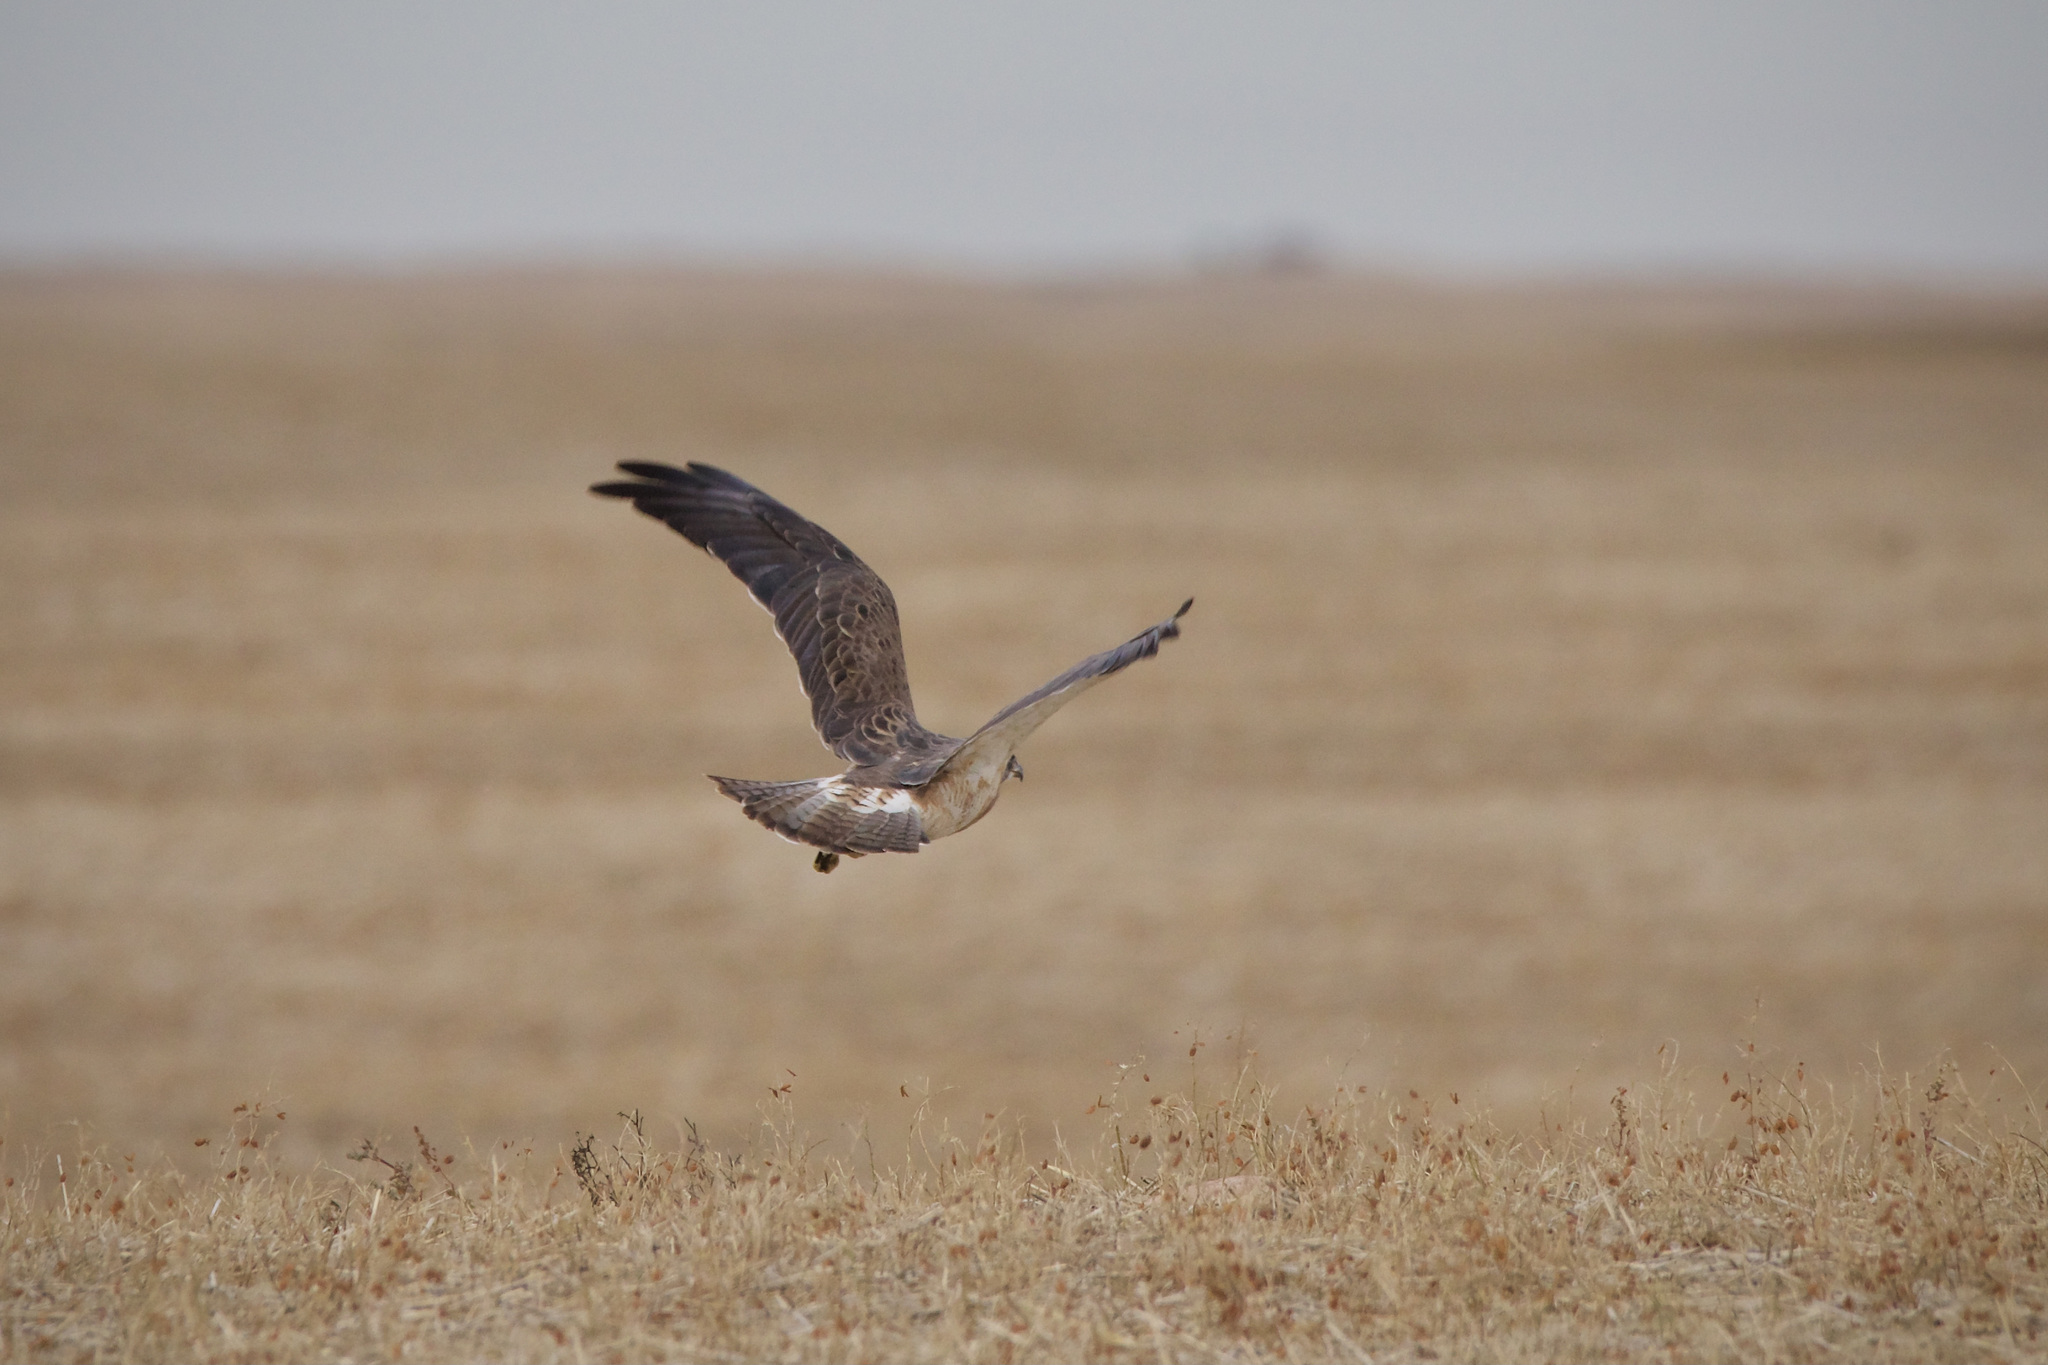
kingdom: Animalia
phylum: Chordata
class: Aves
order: Accipitriformes
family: Accipitridae
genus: Buteo
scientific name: Buteo swainsoni
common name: Swainson's hawk
